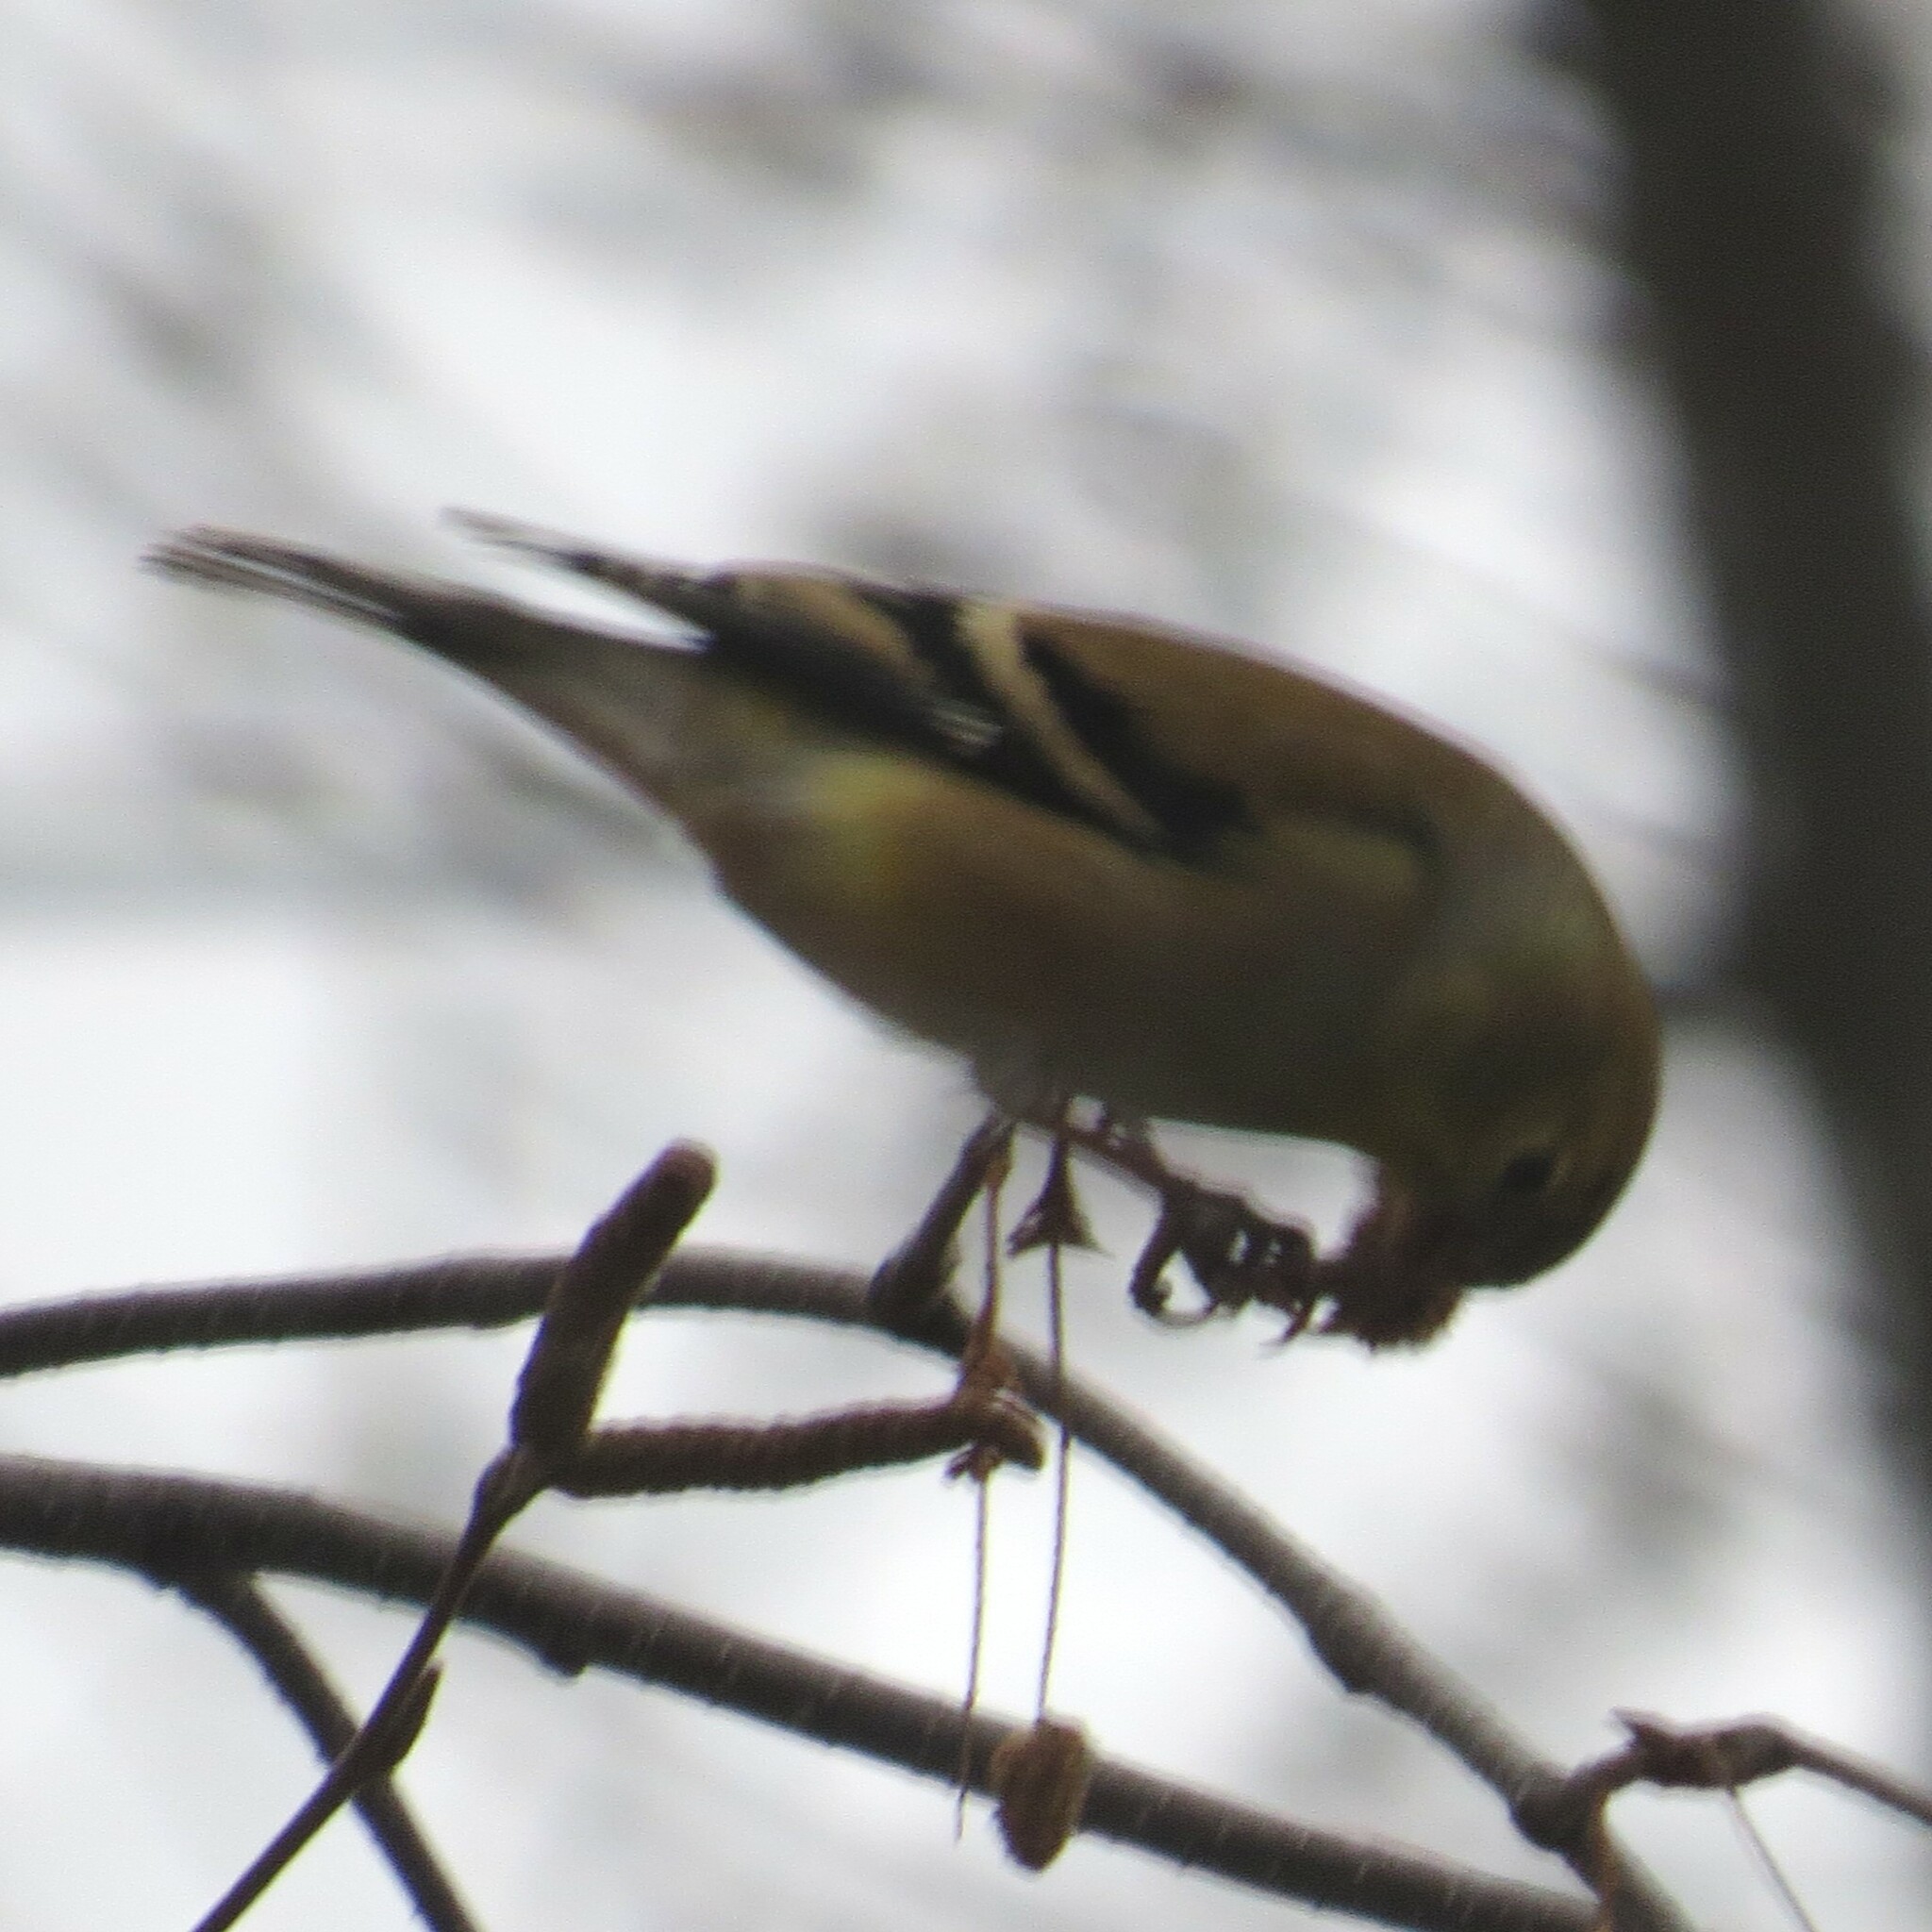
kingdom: Animalia
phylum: Chordata
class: Aves
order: Passeriformes
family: Fringillidae
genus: Spinus
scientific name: Spinus tristis
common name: American goldfinch
